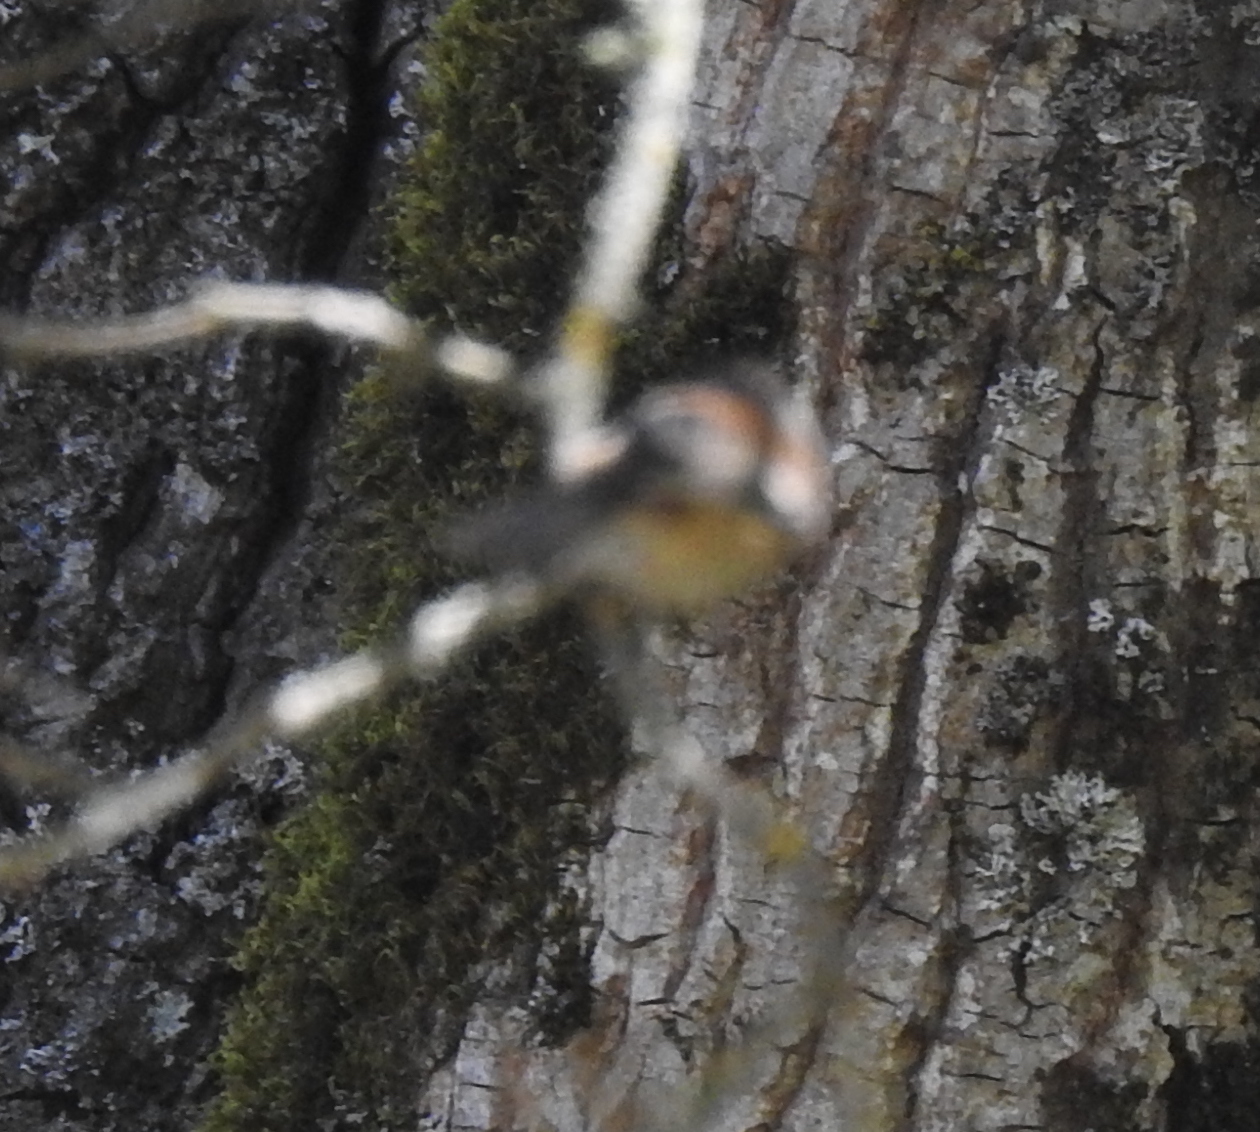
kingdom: Animalia
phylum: Chordata
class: Aves
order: Passeriformes
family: Paridae
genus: Poecile
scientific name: Poecile rufescens
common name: Chestnut-backed chickadee
